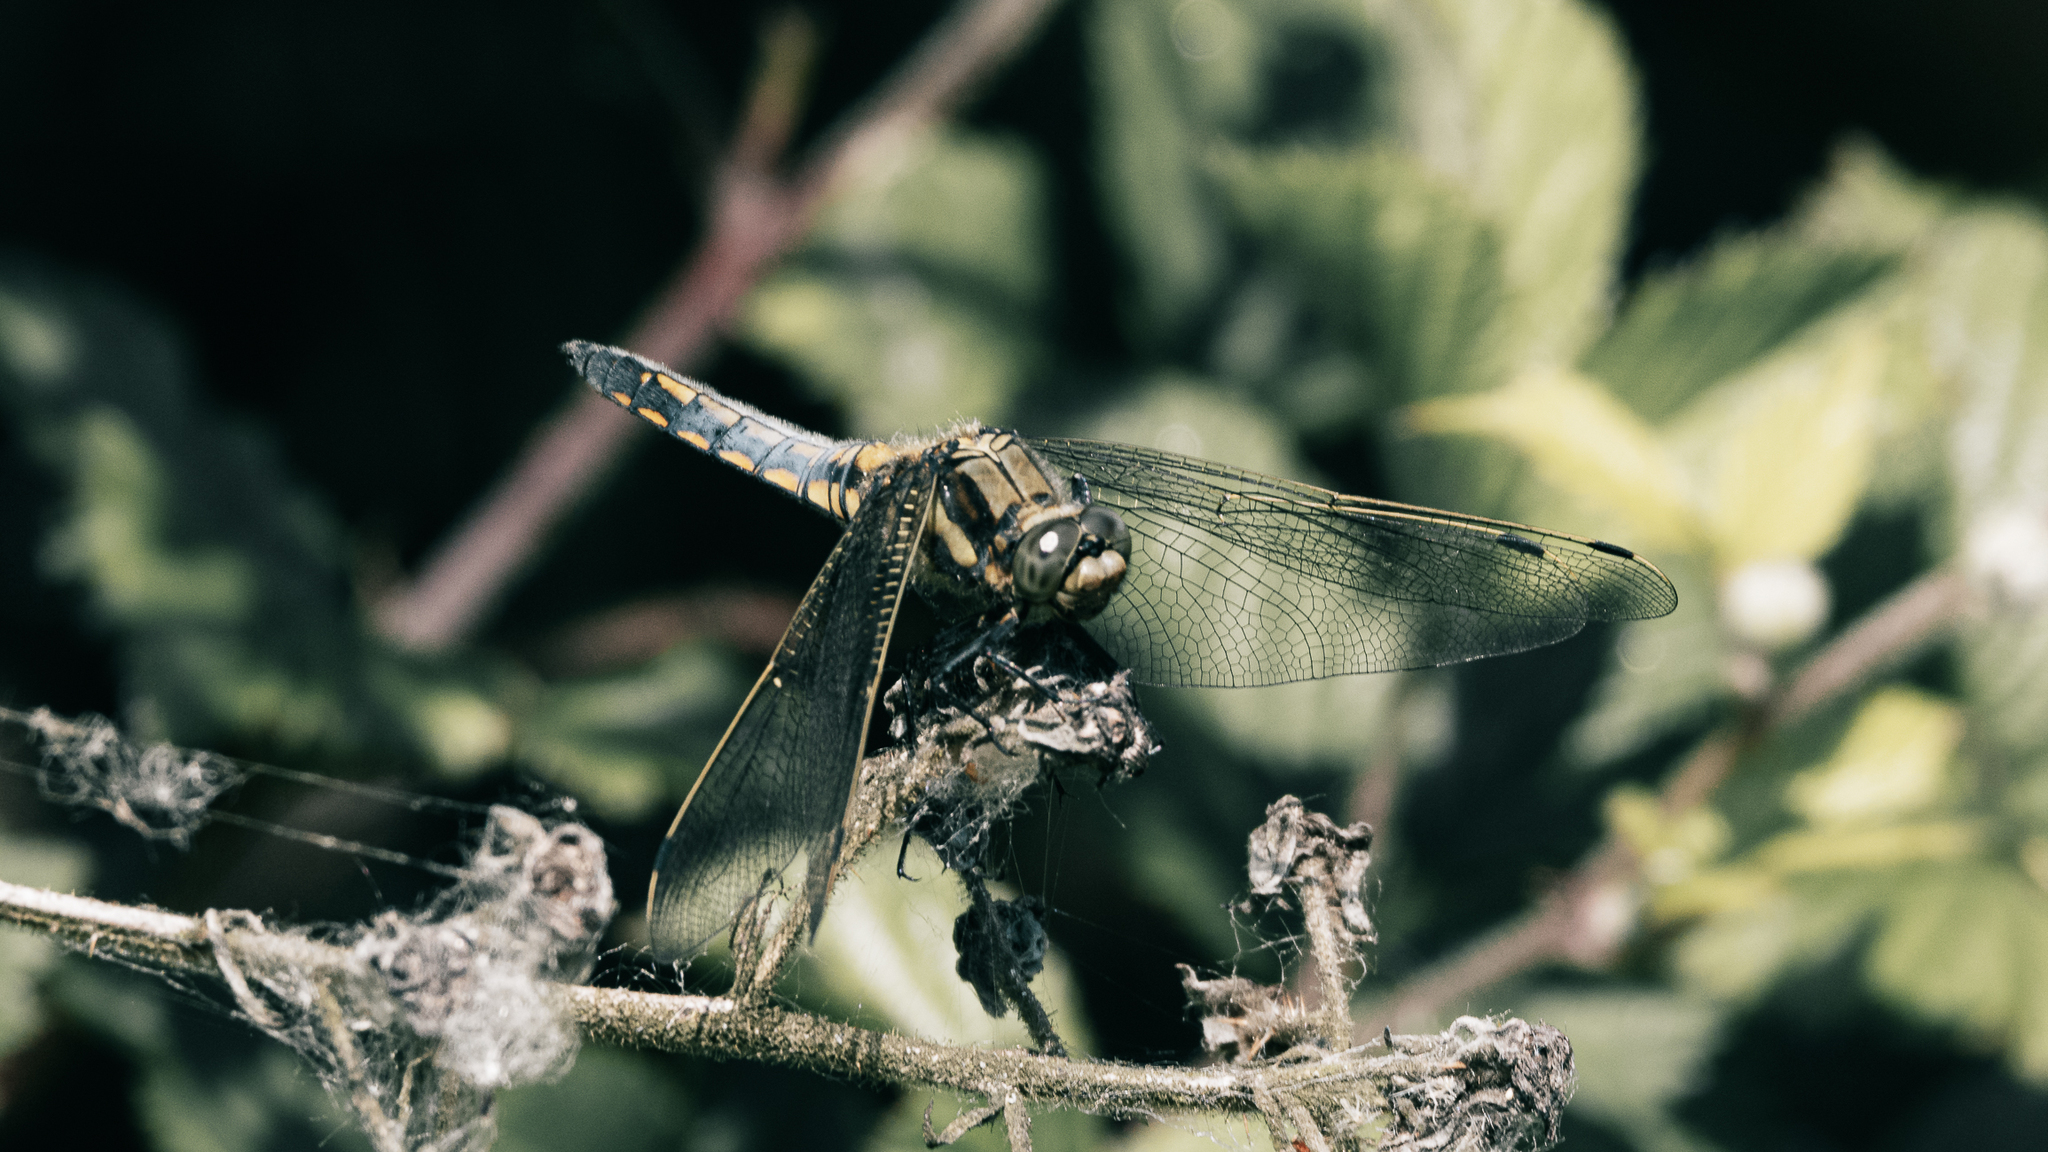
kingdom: Animalia
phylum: Arthropoda
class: Insecta
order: Odonata
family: Libellulidae
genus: Orthetrum
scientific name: Orthetrum cancellatum
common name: Black-tailed skimmer
